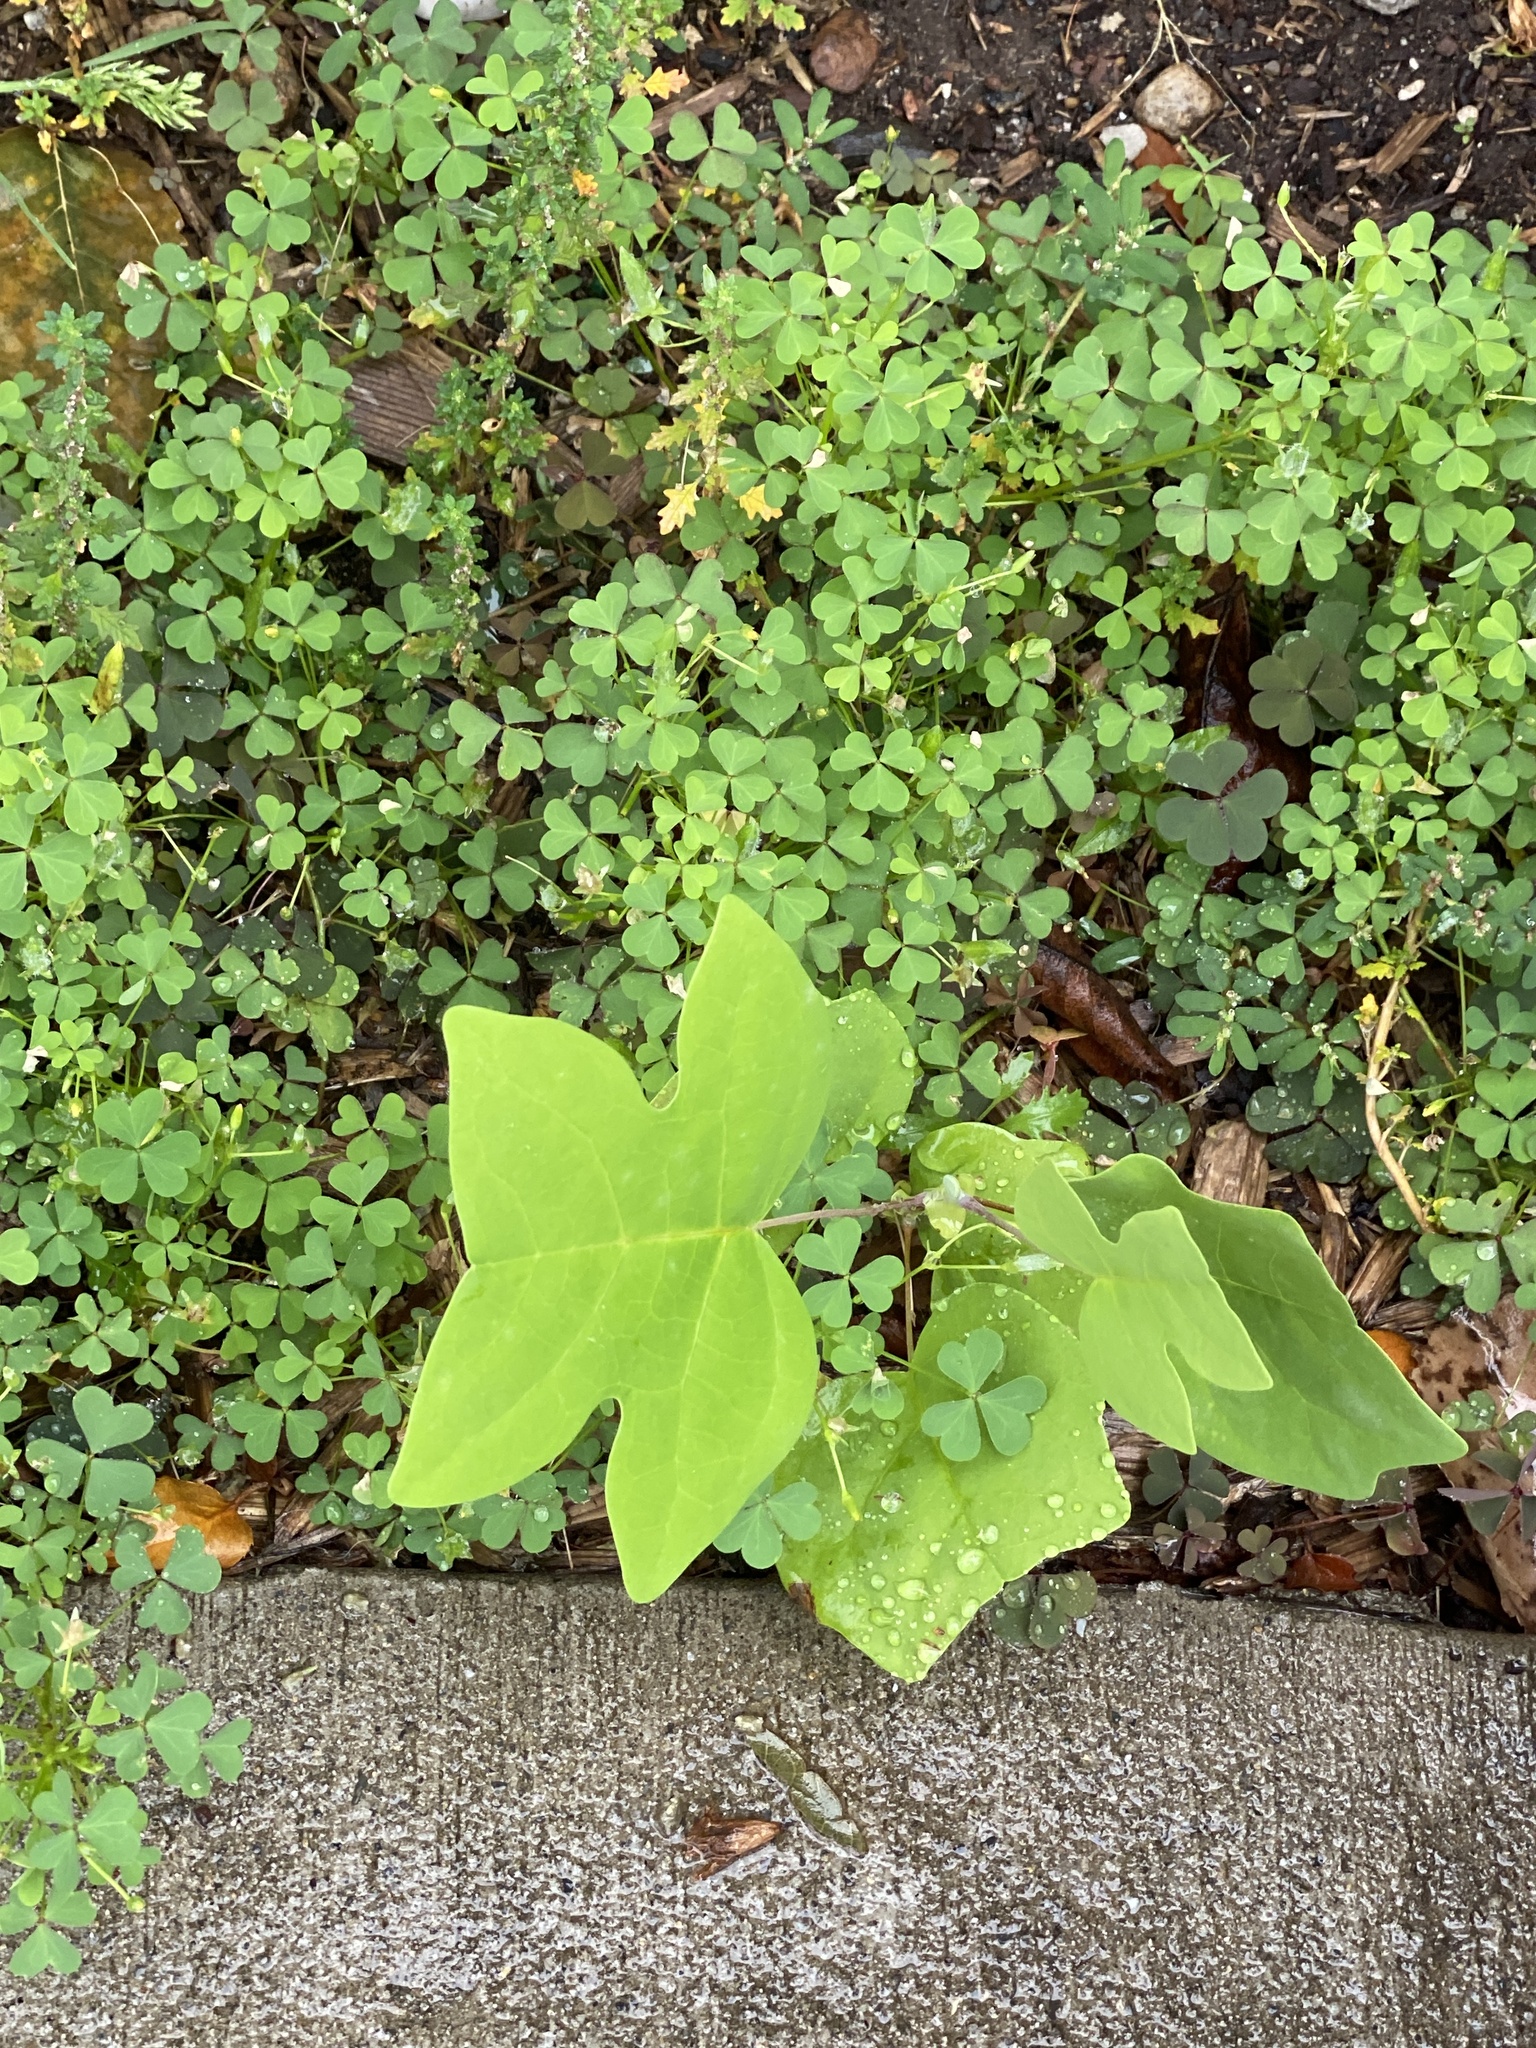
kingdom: Plantae
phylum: Tracheophyta
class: Magnoliopsida
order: Magnoliales
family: Magnoliaceae
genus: Liriodendron
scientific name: Liriodendron tulipifera
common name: Tulip tree
